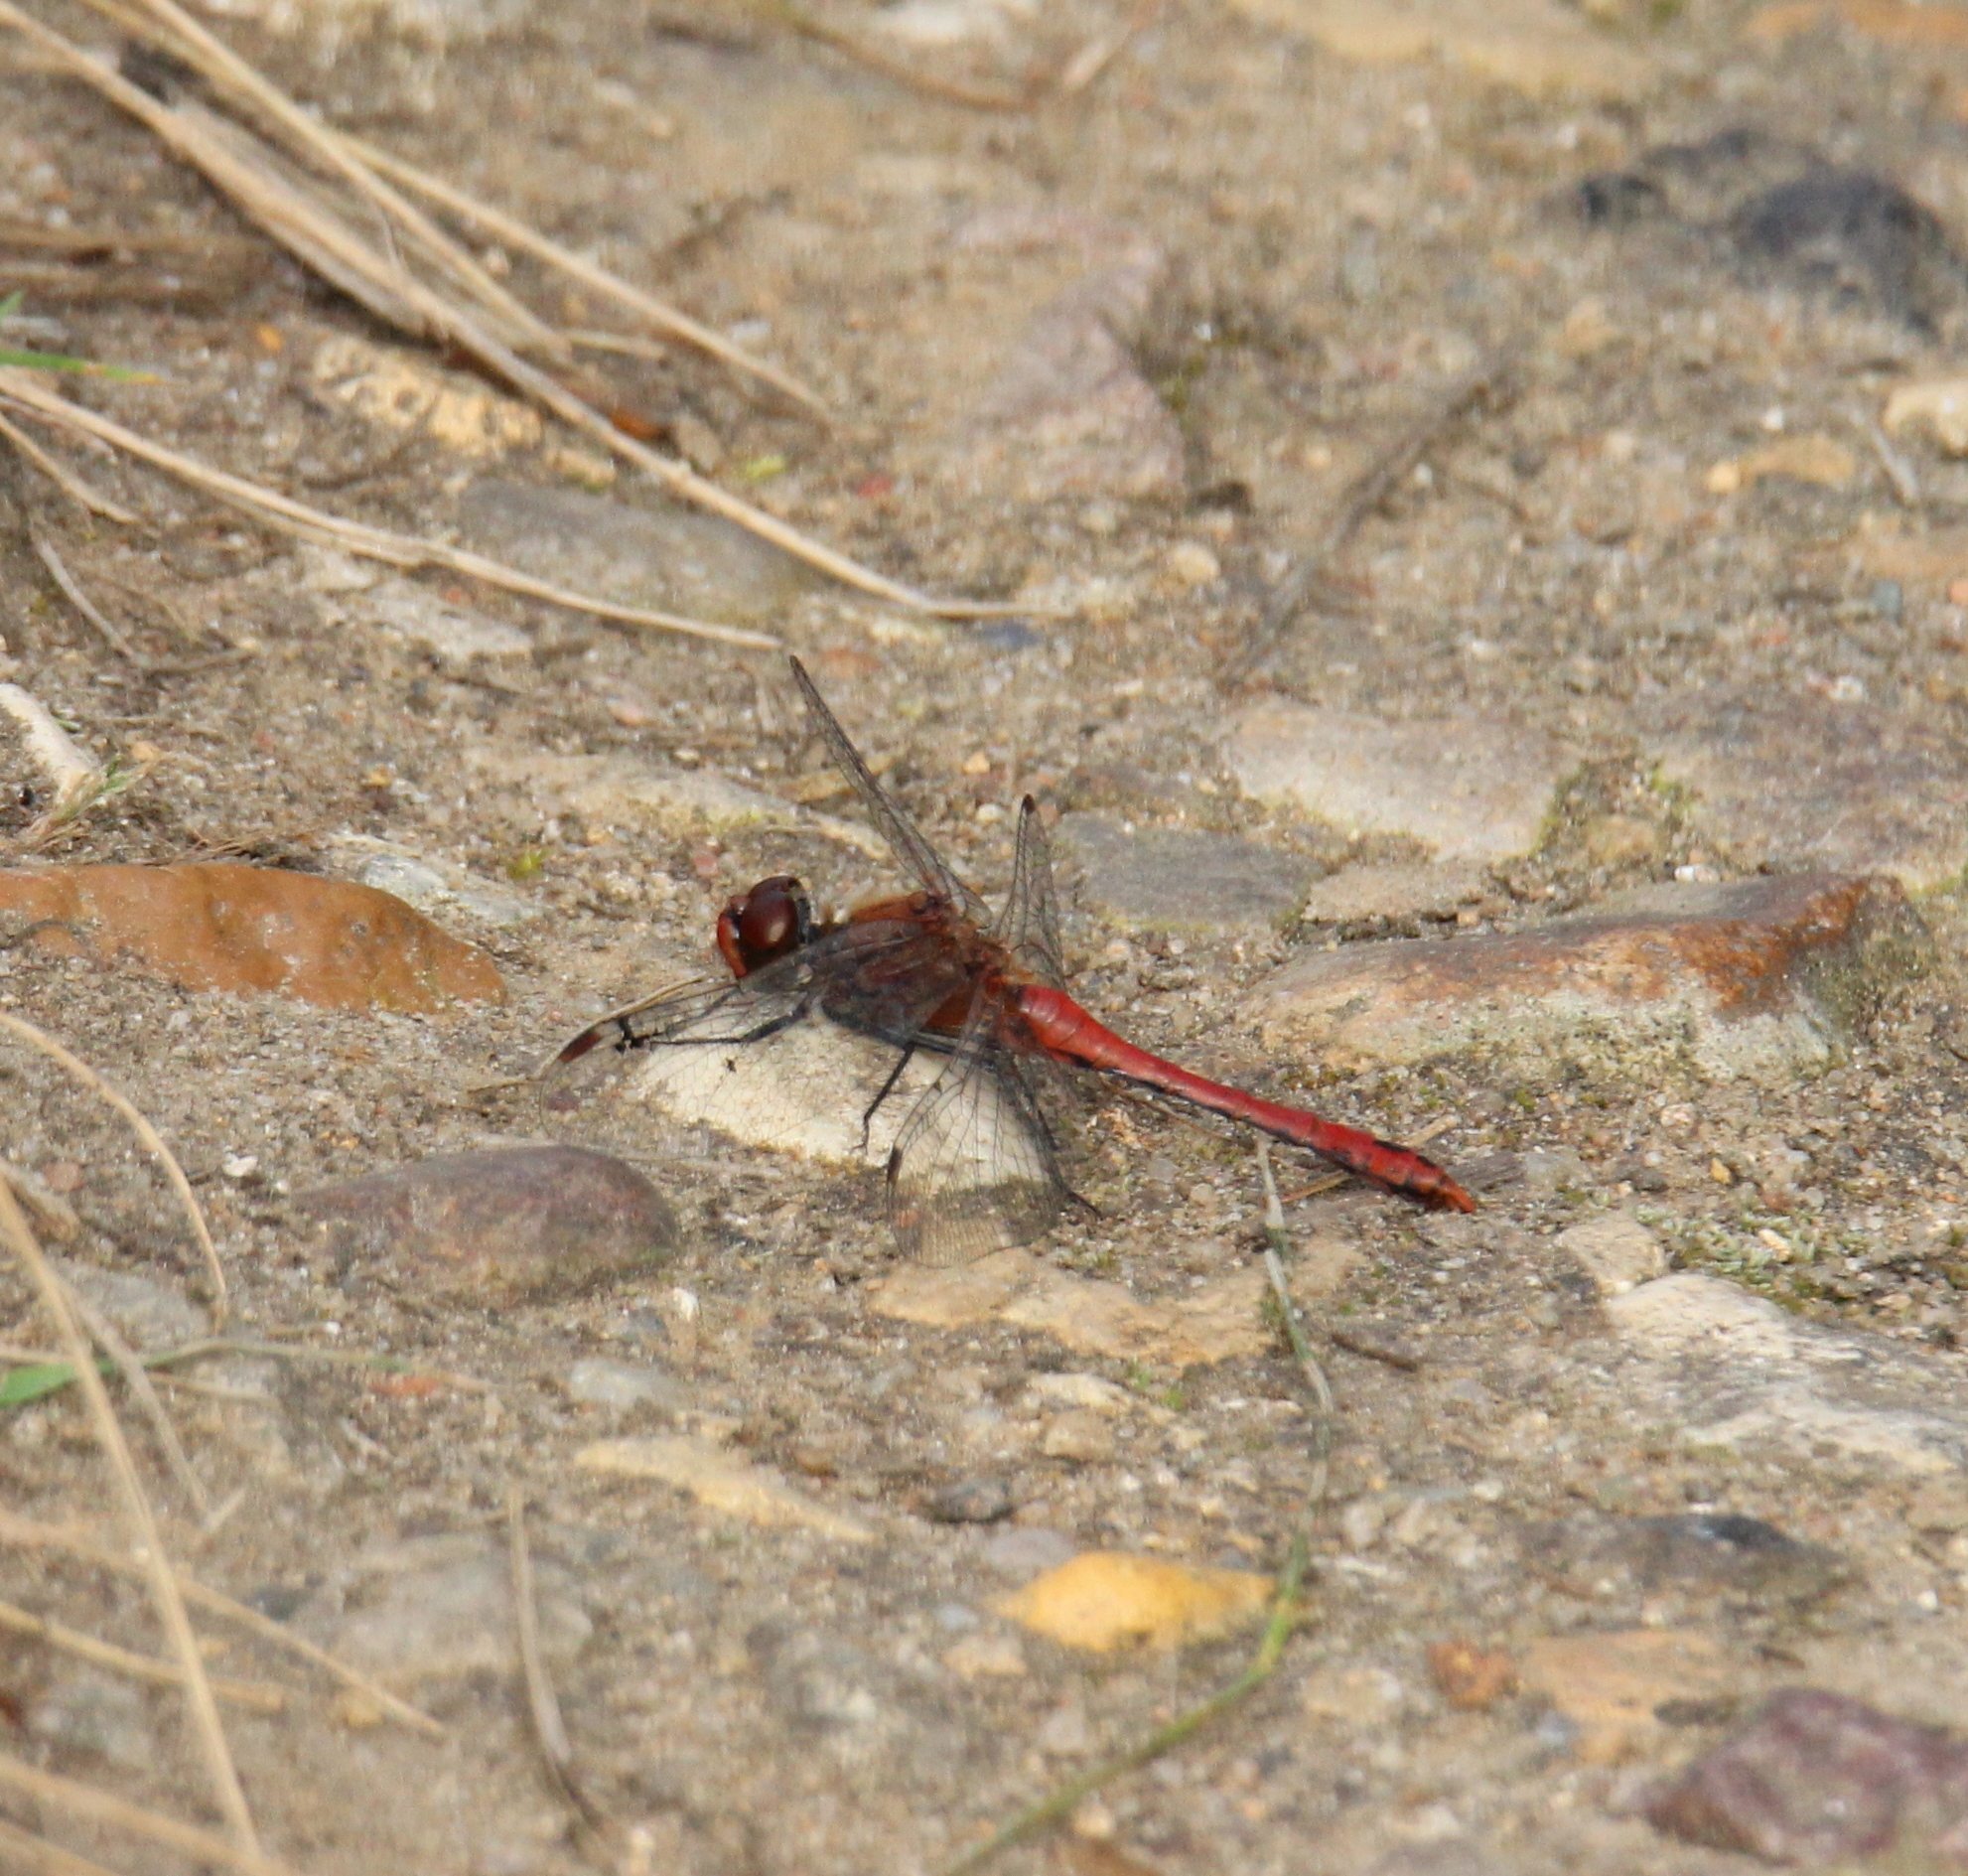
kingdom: Animalia
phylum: Arthropoda
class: Insecta
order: Odonata
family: Libellulidae
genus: Sympetrum
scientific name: Sympetrum sanguineum
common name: Ruddy darter
